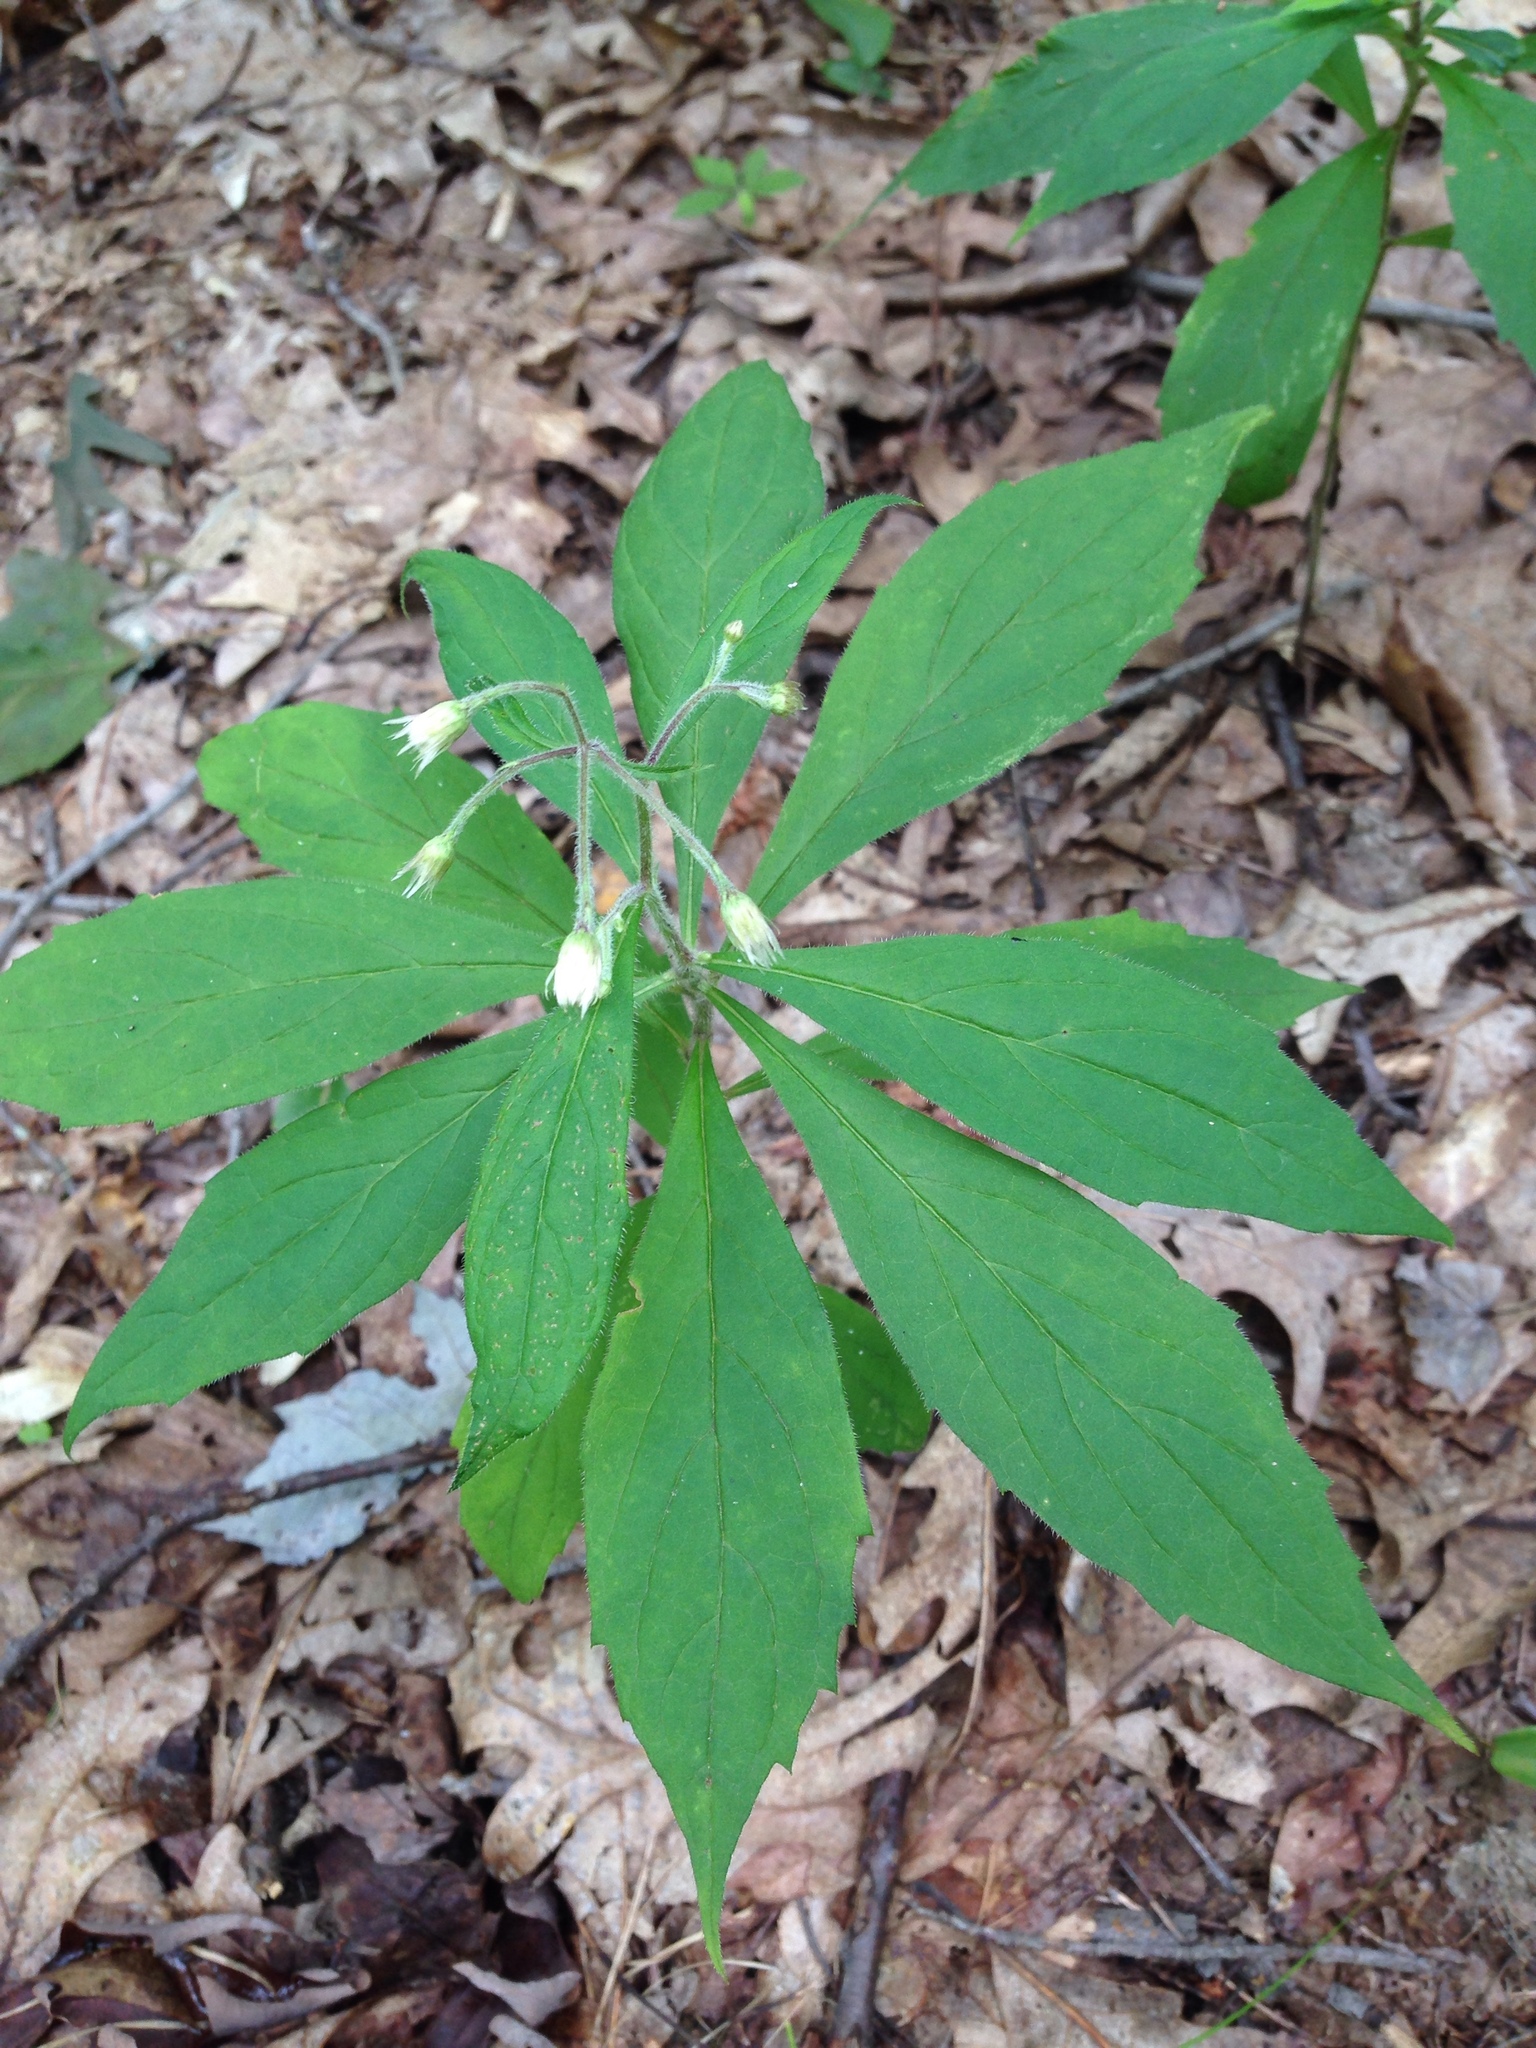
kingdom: Plantae
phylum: Tracheophyta
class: Magnoliopsida
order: Asterales
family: Asteraceae
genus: Oclemena
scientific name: Oclemena acuminata
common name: Mountain aster
